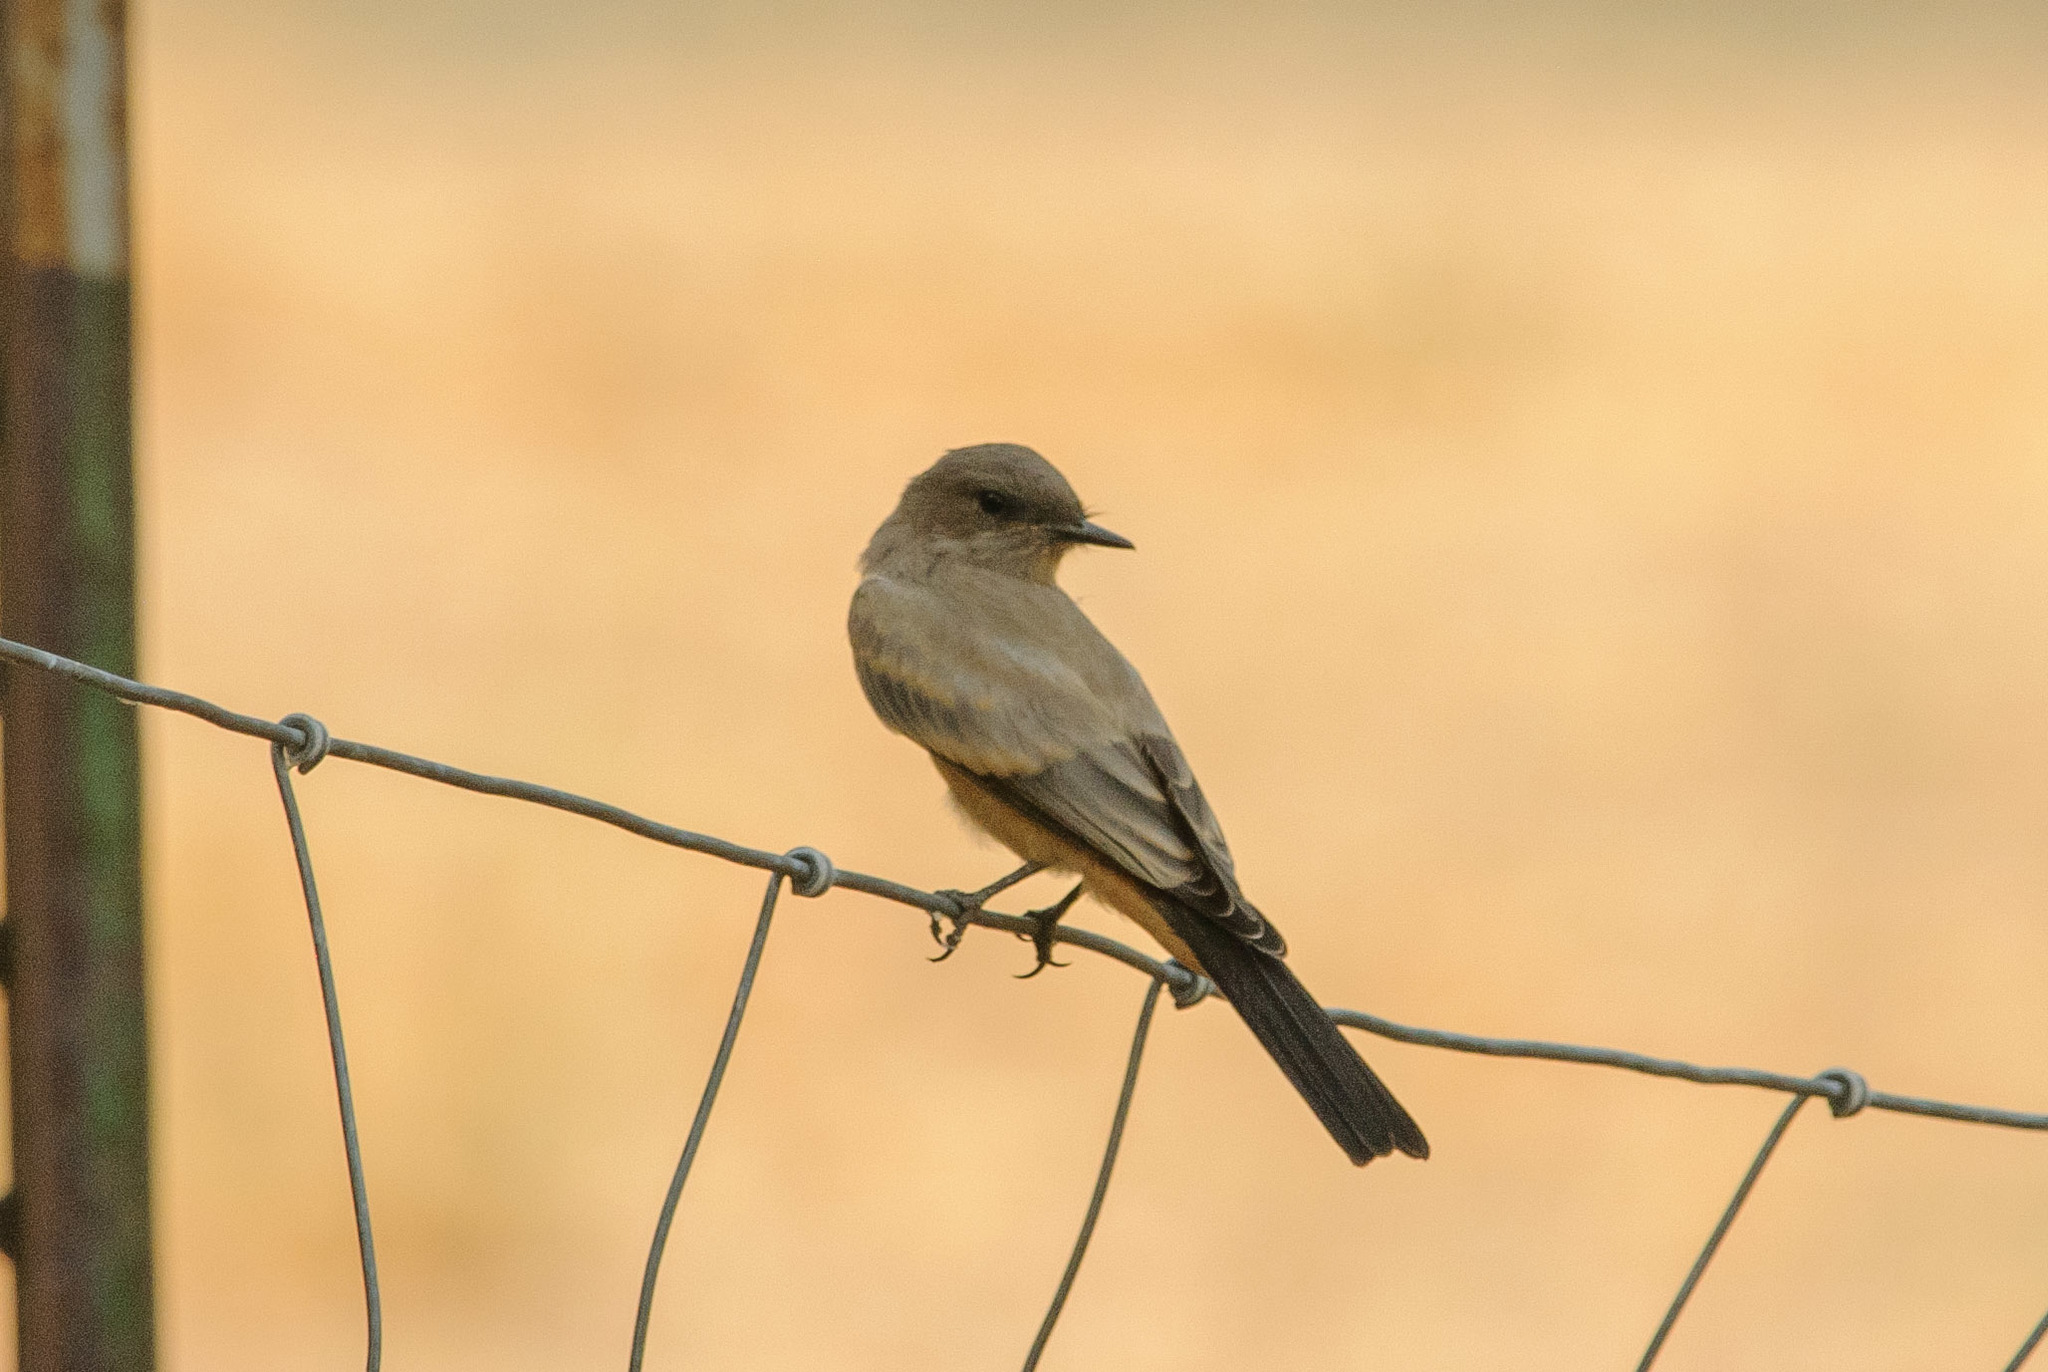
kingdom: Animalia
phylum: Chordata
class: Aves
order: Passeriformes
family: Tyrannidae
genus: Sayornis
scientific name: Sayornis saya
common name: Say's phoebe
